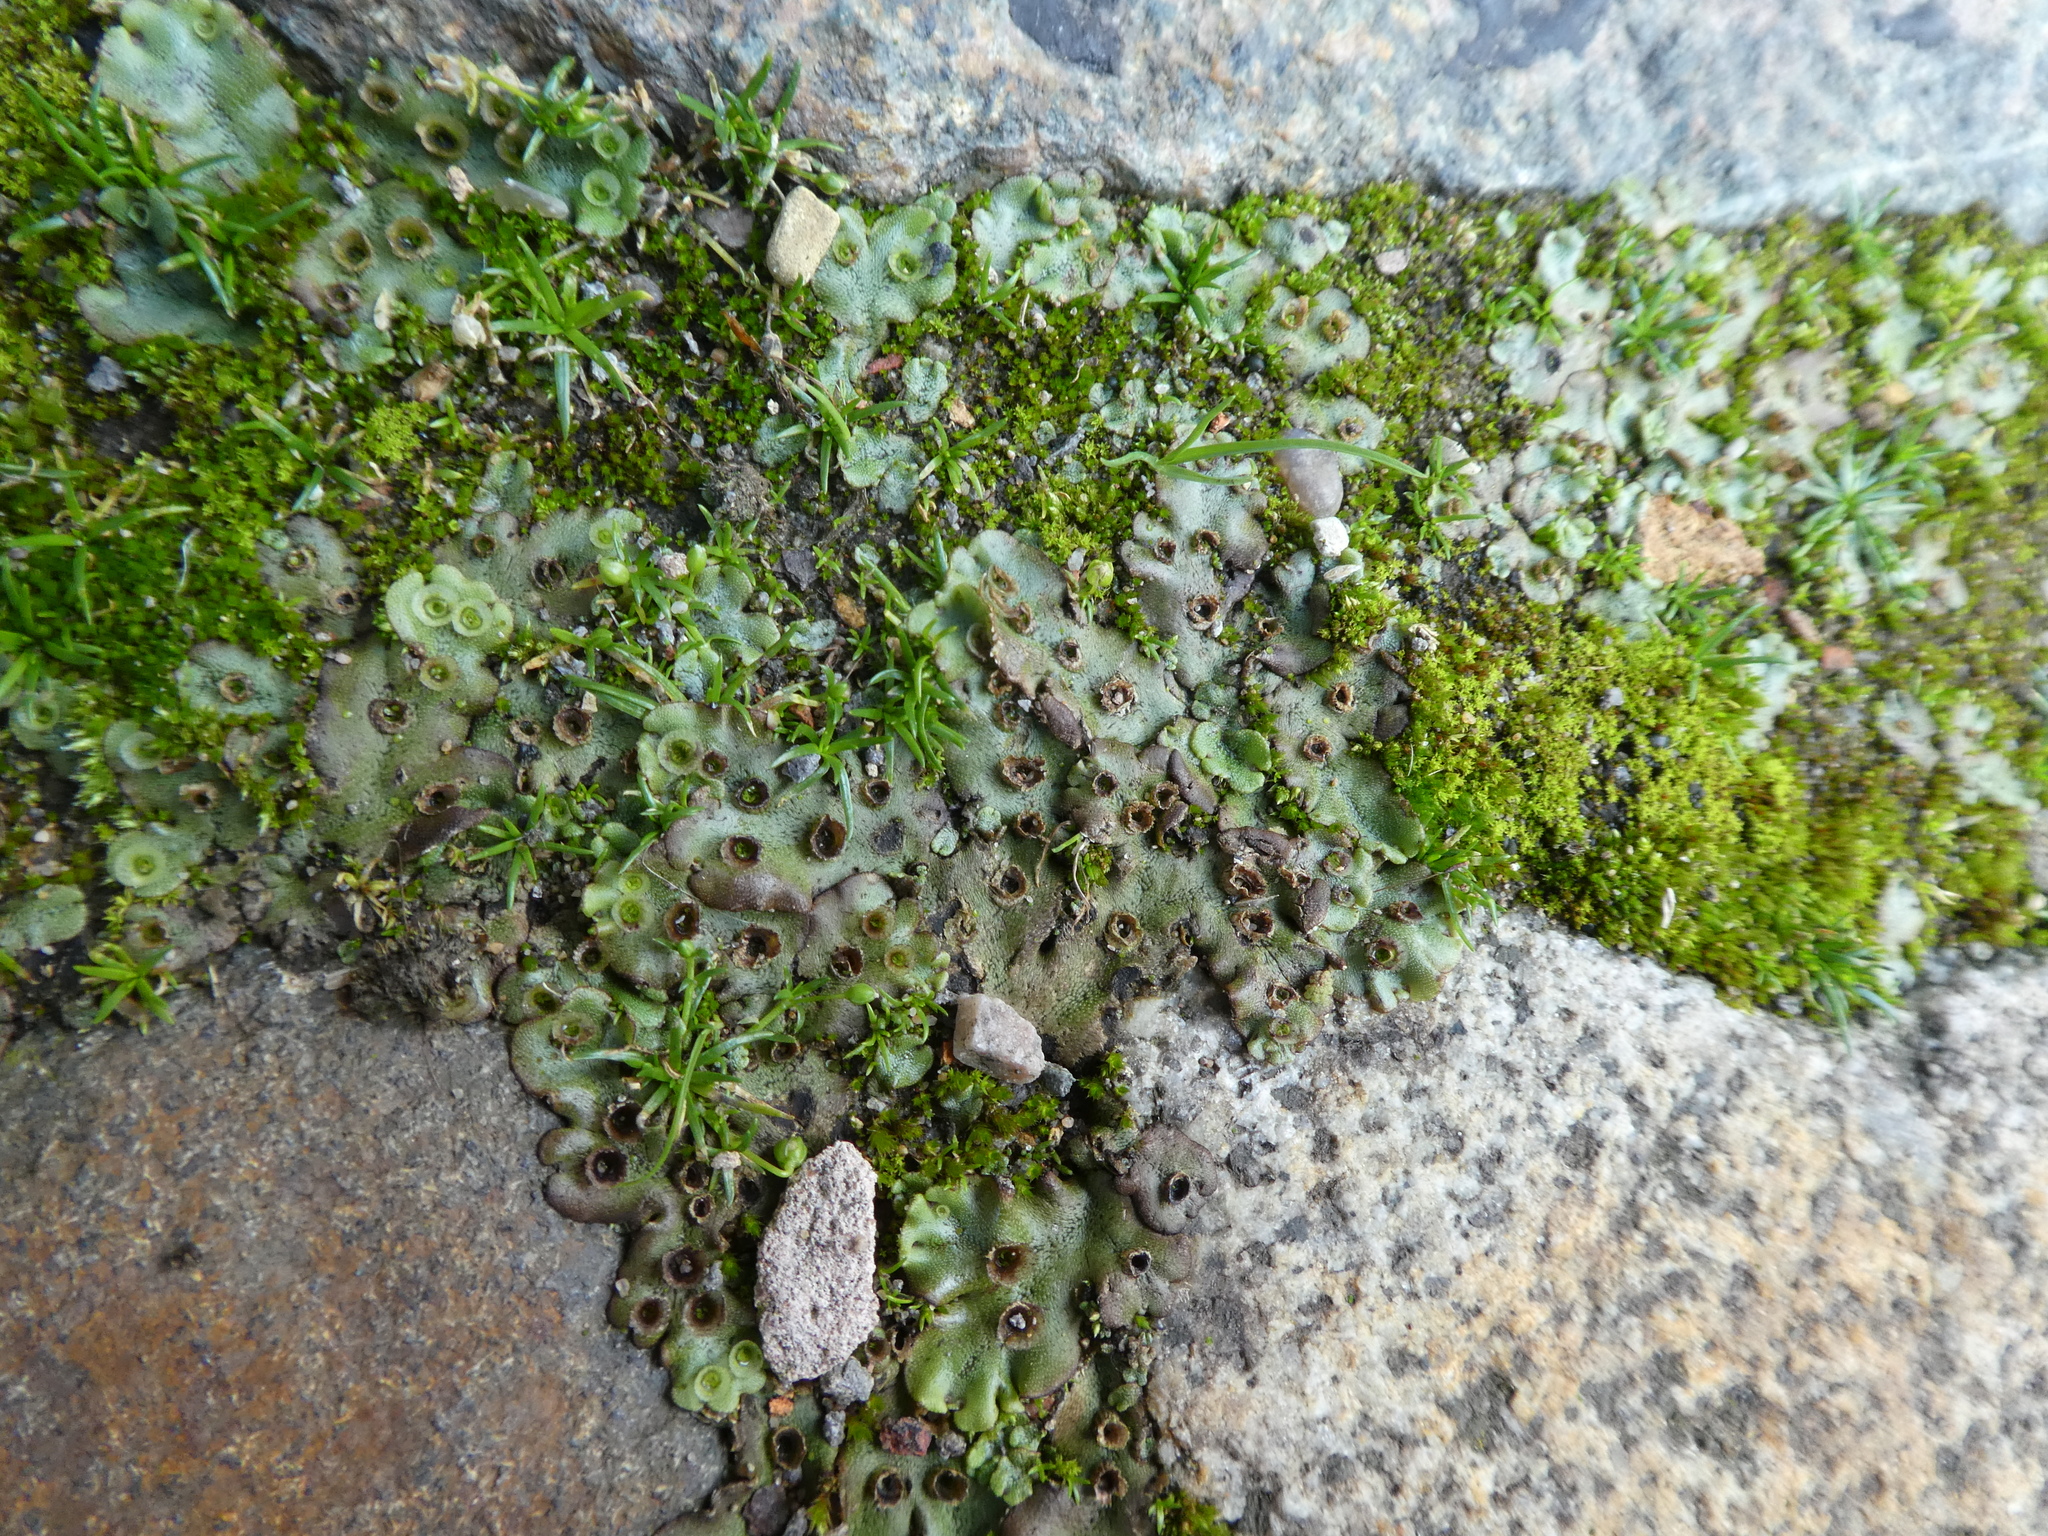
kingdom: Plantae
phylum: Marchantiophyta
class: Marchantiopsida
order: Marchantiales
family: Marchantiaceae
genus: Marchantia
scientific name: Marchantia polymorpha
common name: Common liverwort
